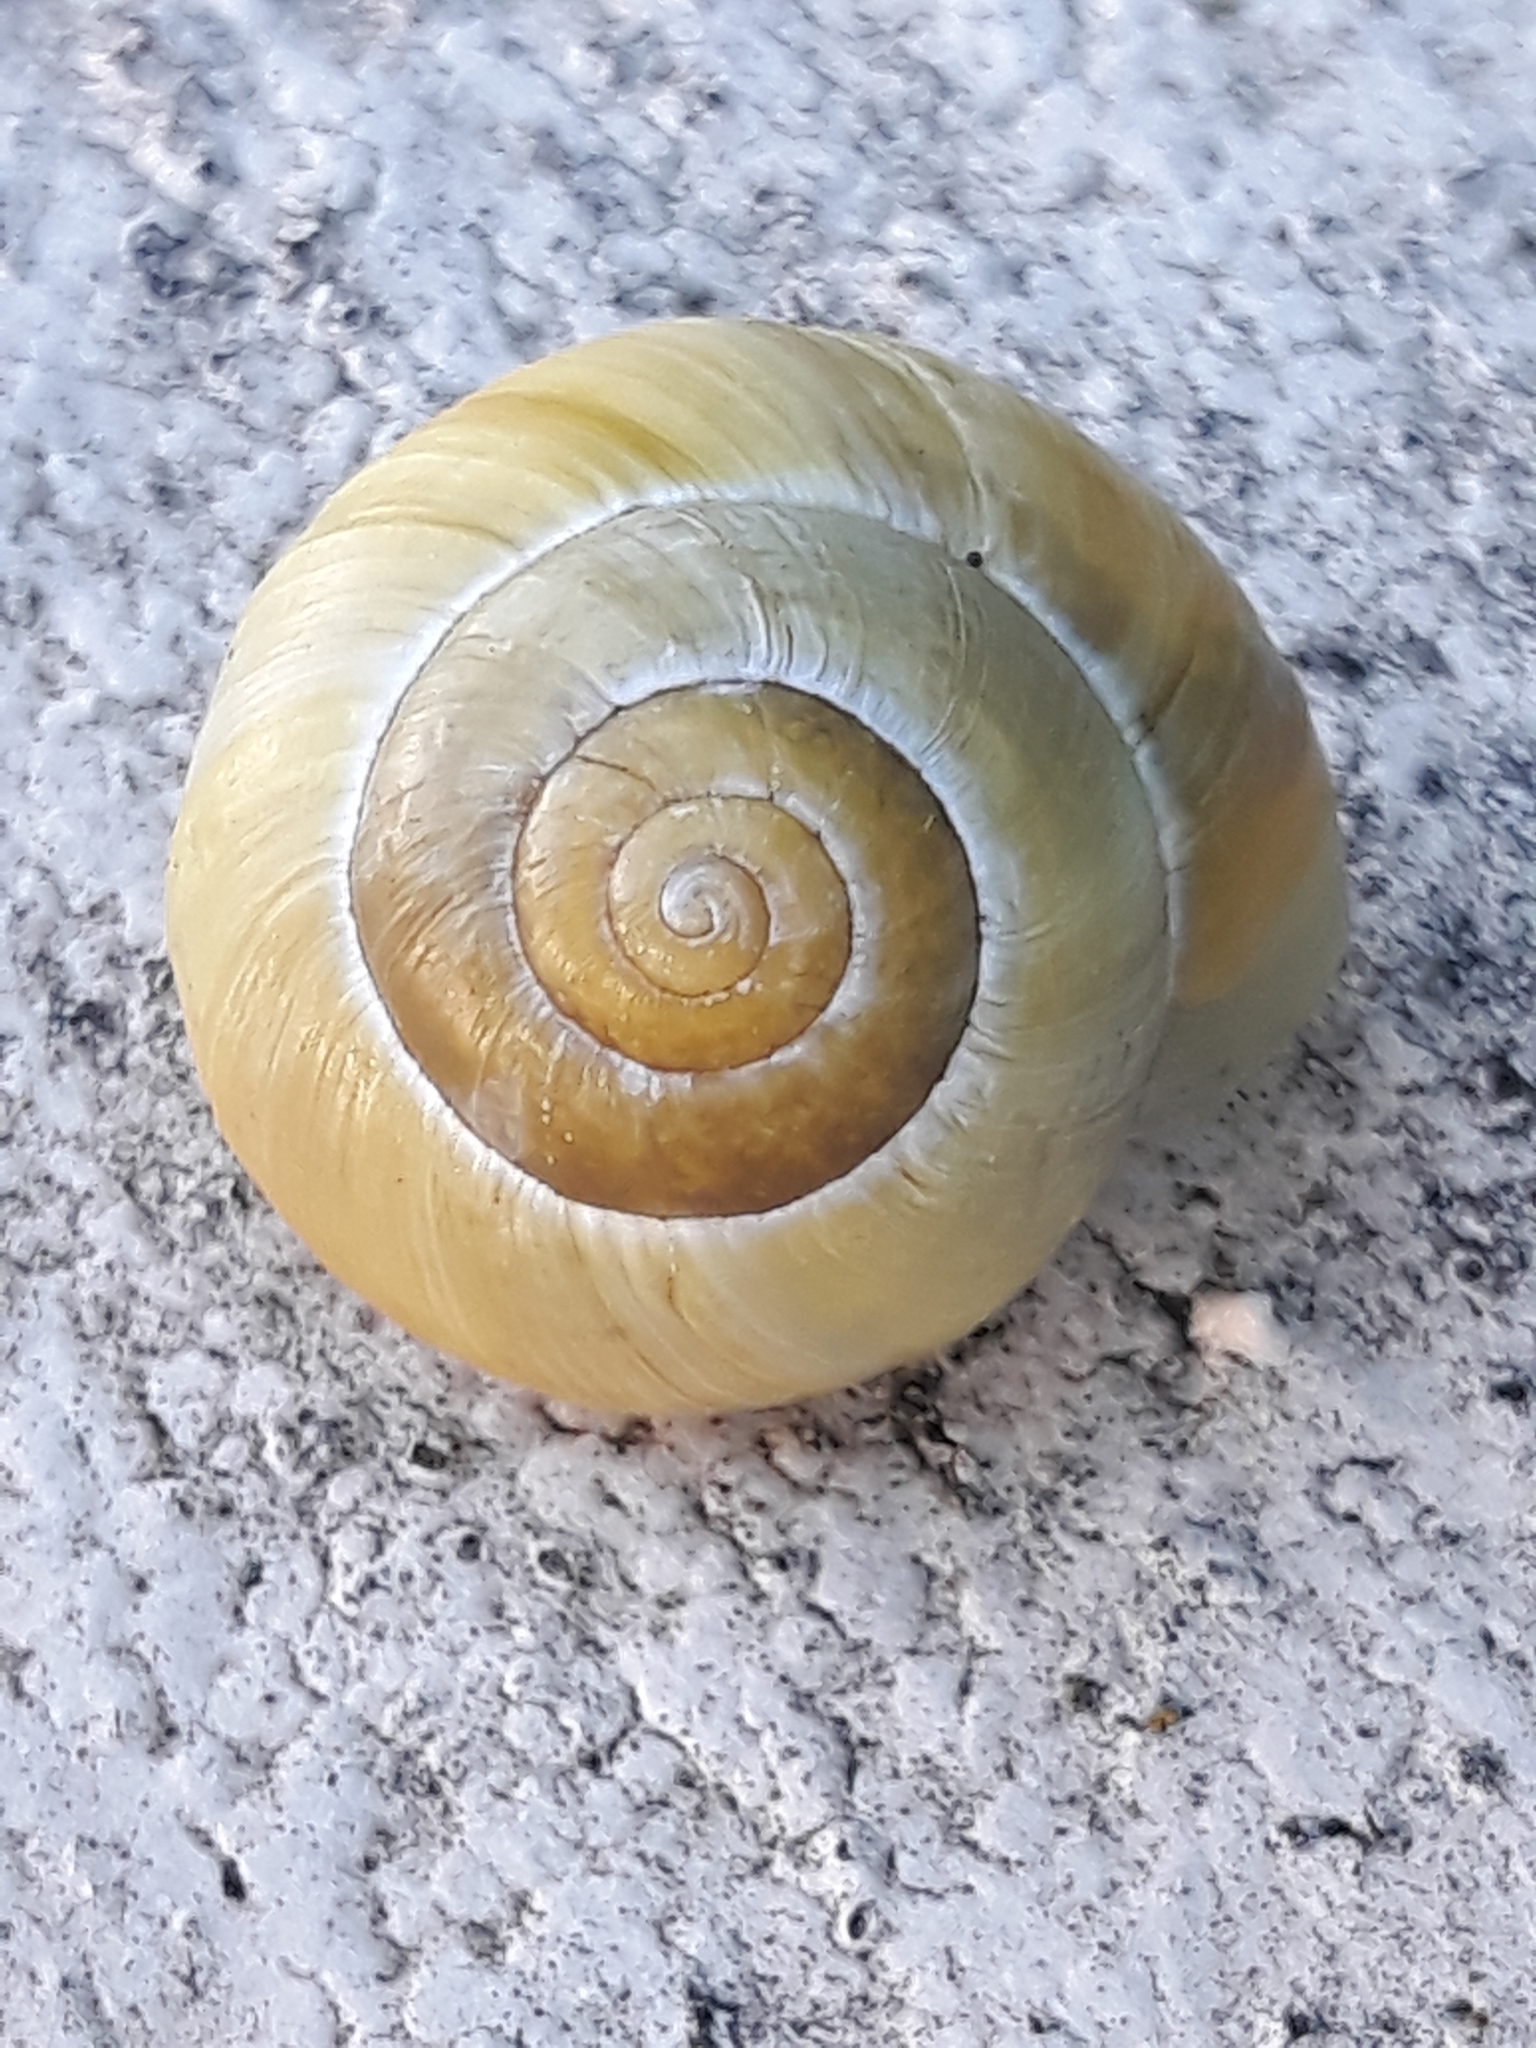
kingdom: Animalia
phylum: Mollusca
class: Gastropoda
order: Stylommatophora
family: Helicidae
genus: Cepaea
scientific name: Cepaea nemoralis
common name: Grovesnail
